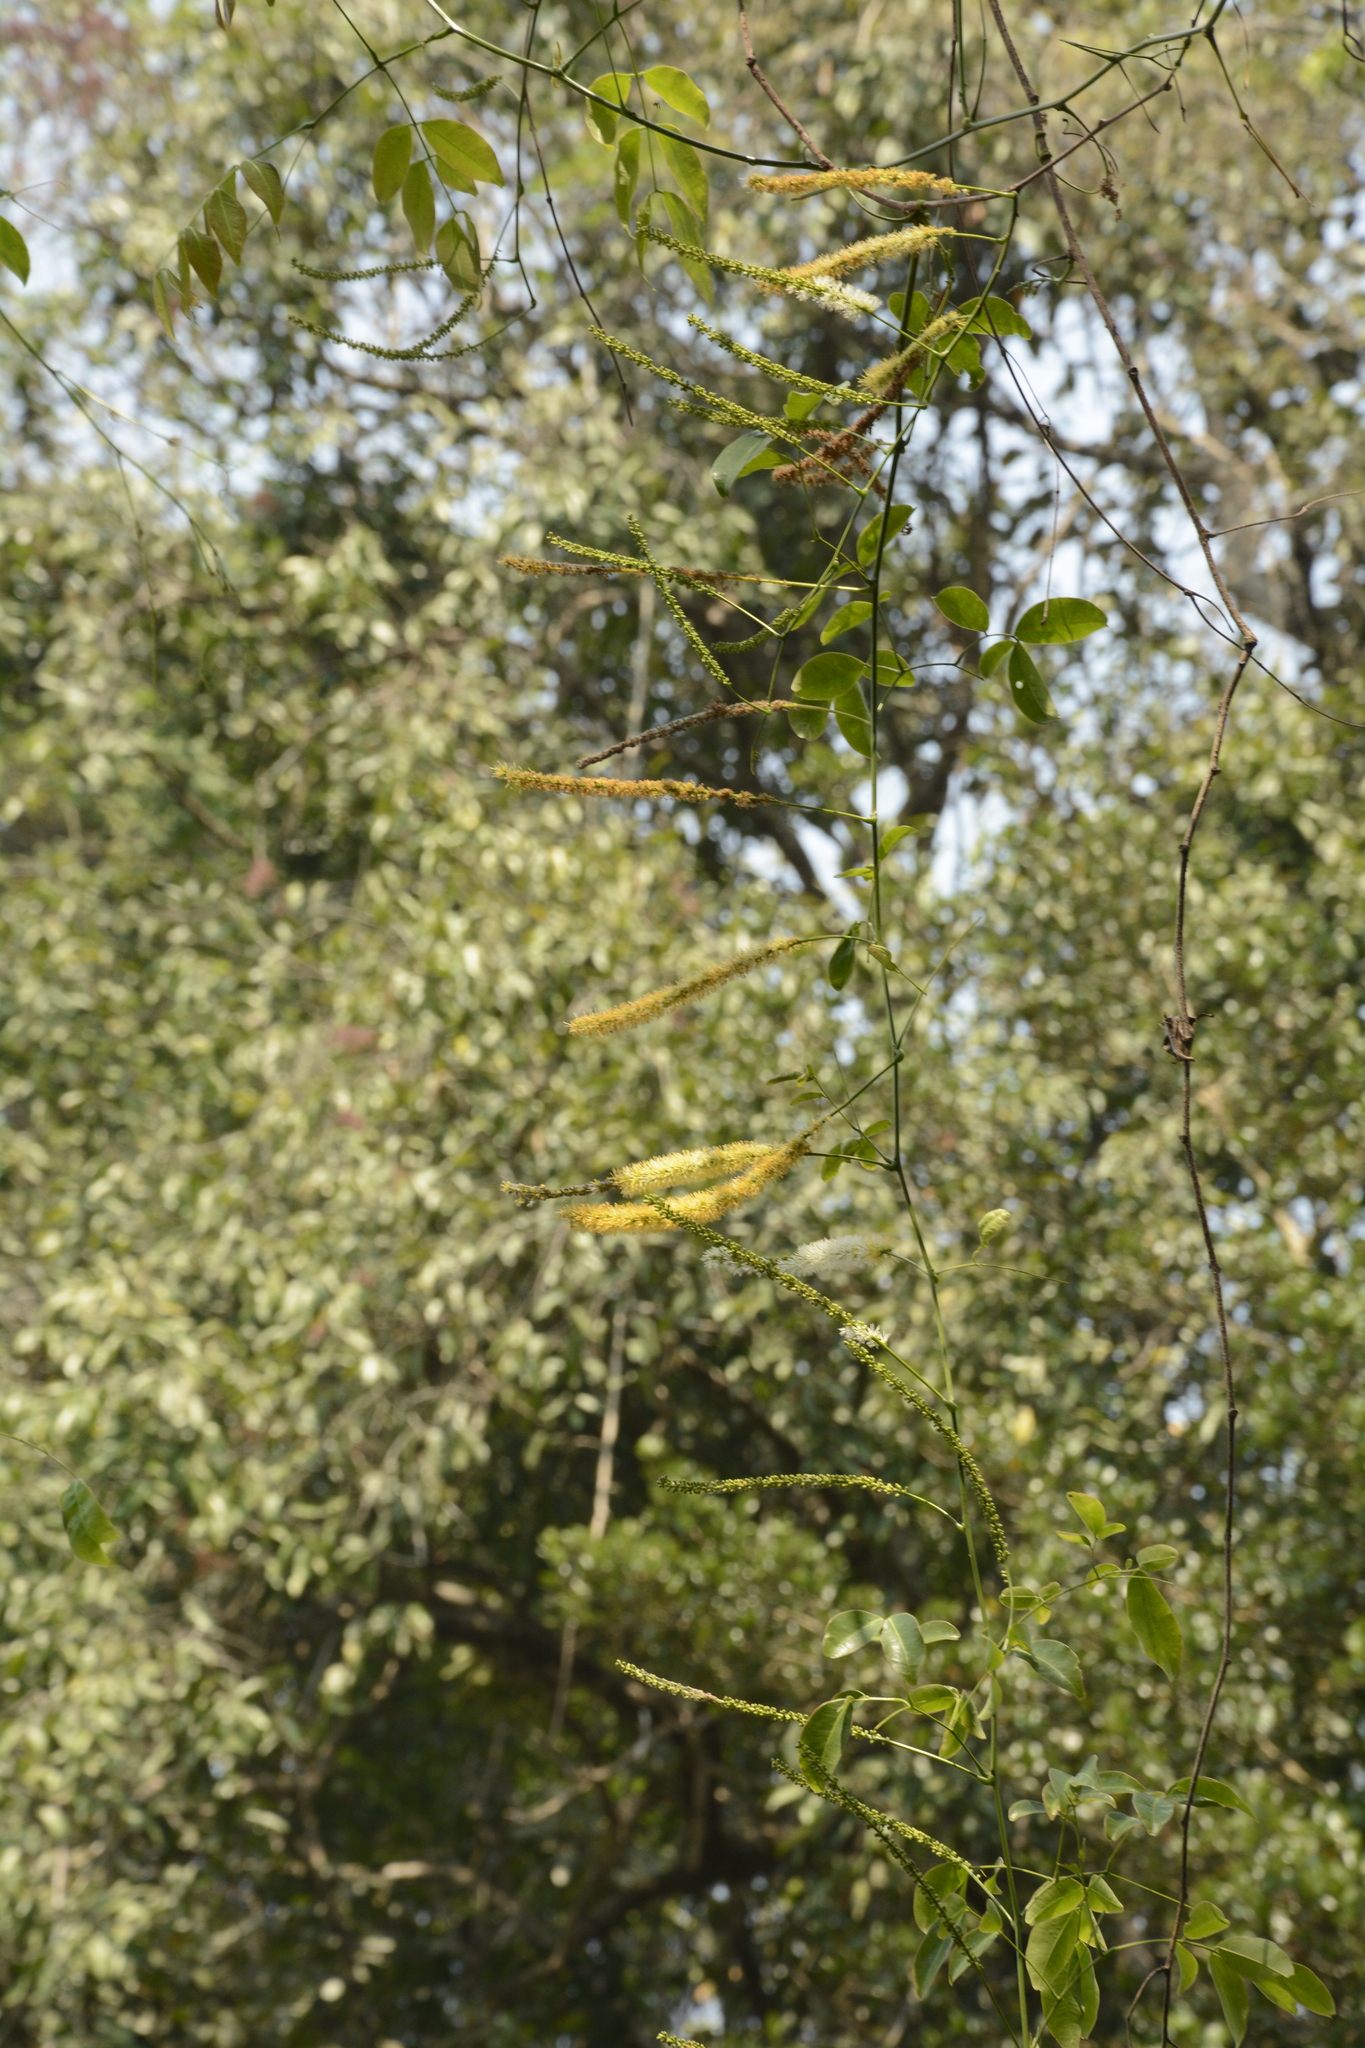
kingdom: Plantae
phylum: Tracheophyta
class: Magnoliopsida
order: Fabales
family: Fabaceae
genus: Entada
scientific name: Entada rheedei
